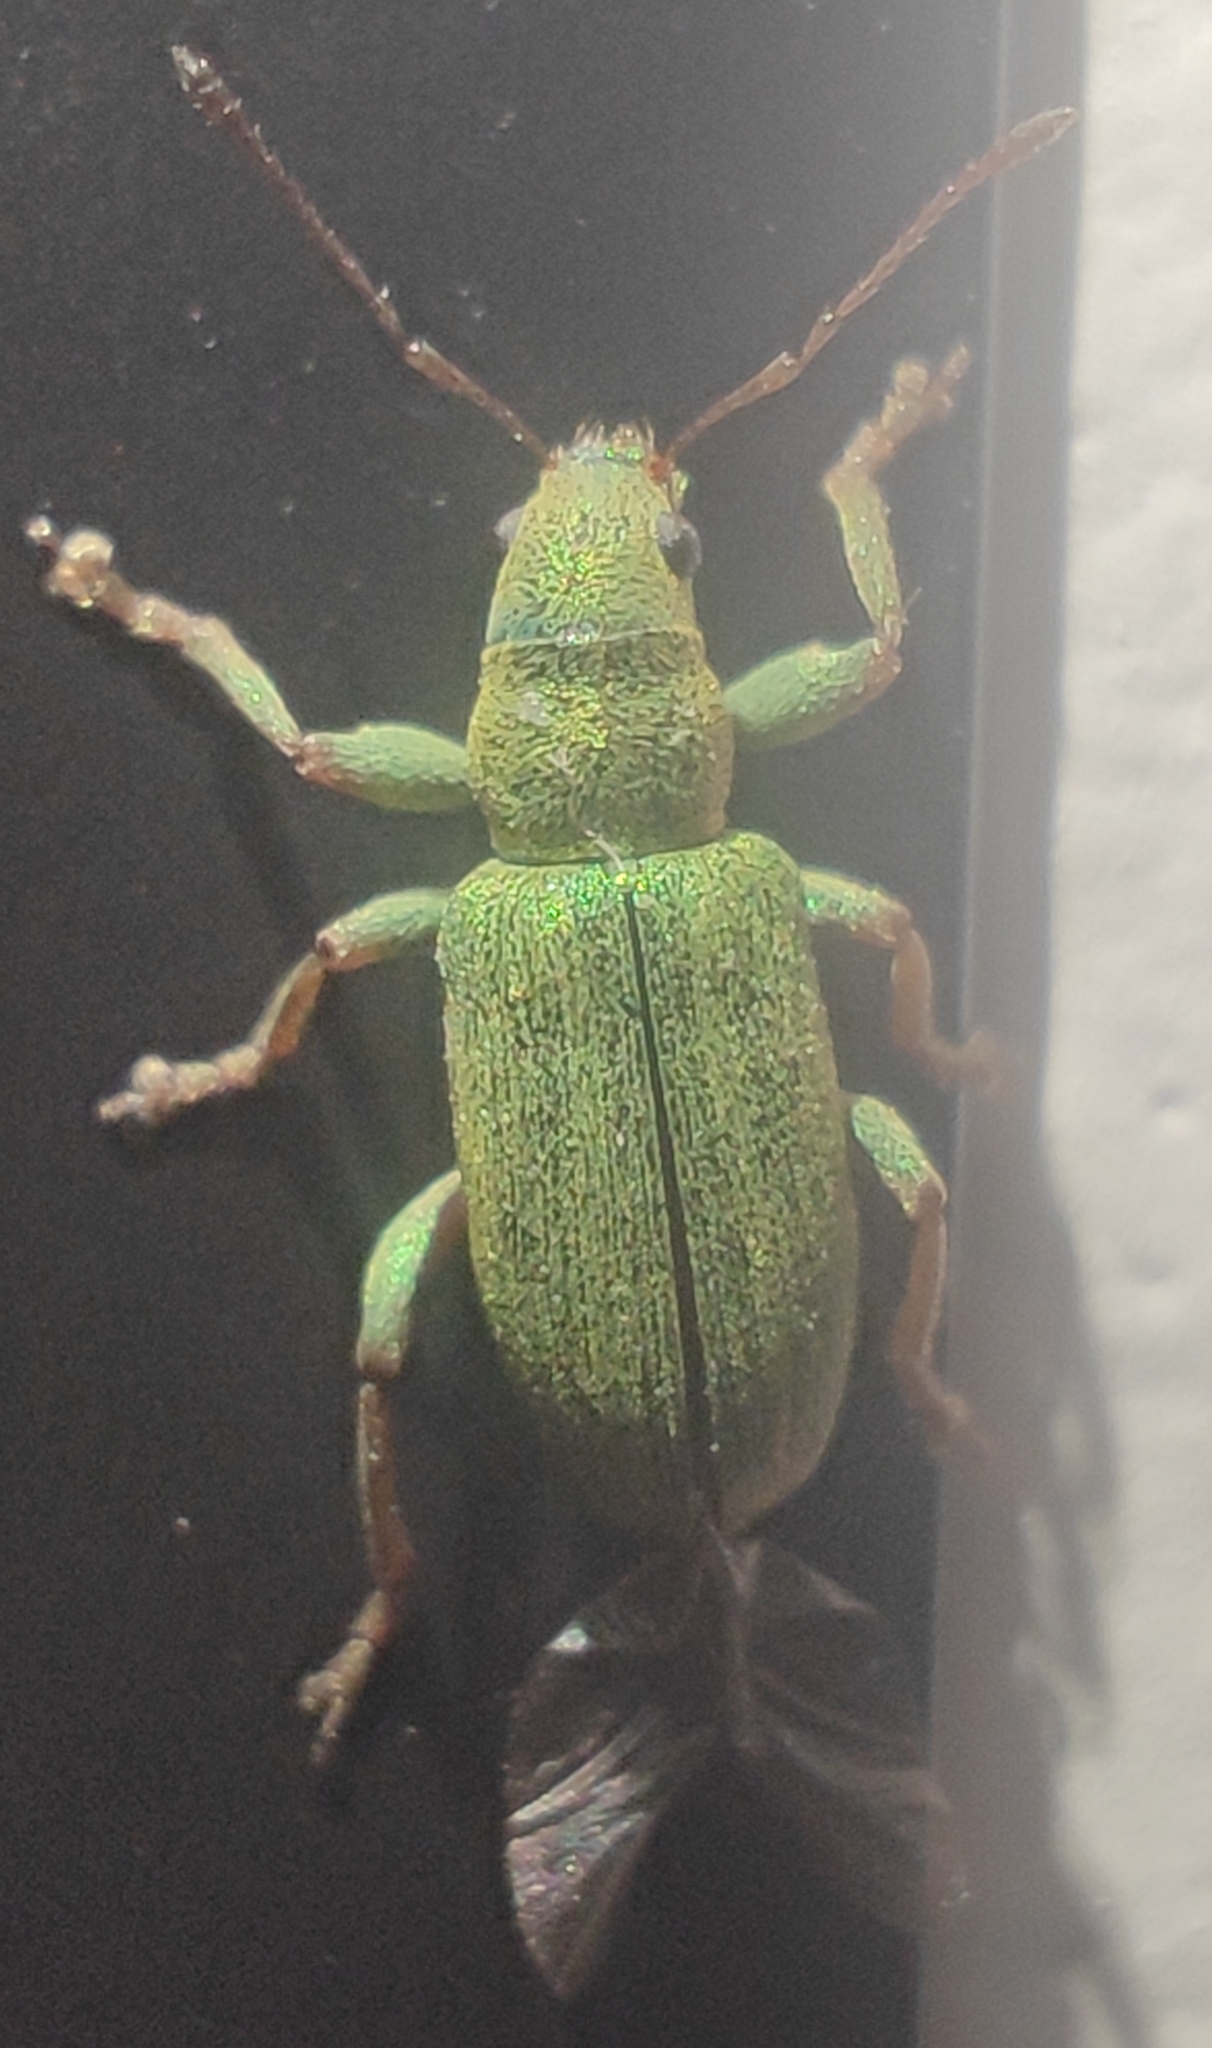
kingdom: Animalia
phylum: Arthropoda
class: Insecta
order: Coleoptera
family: Curculionidae
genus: Pachyrhinus
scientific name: Pachyrhinus lethierryi
